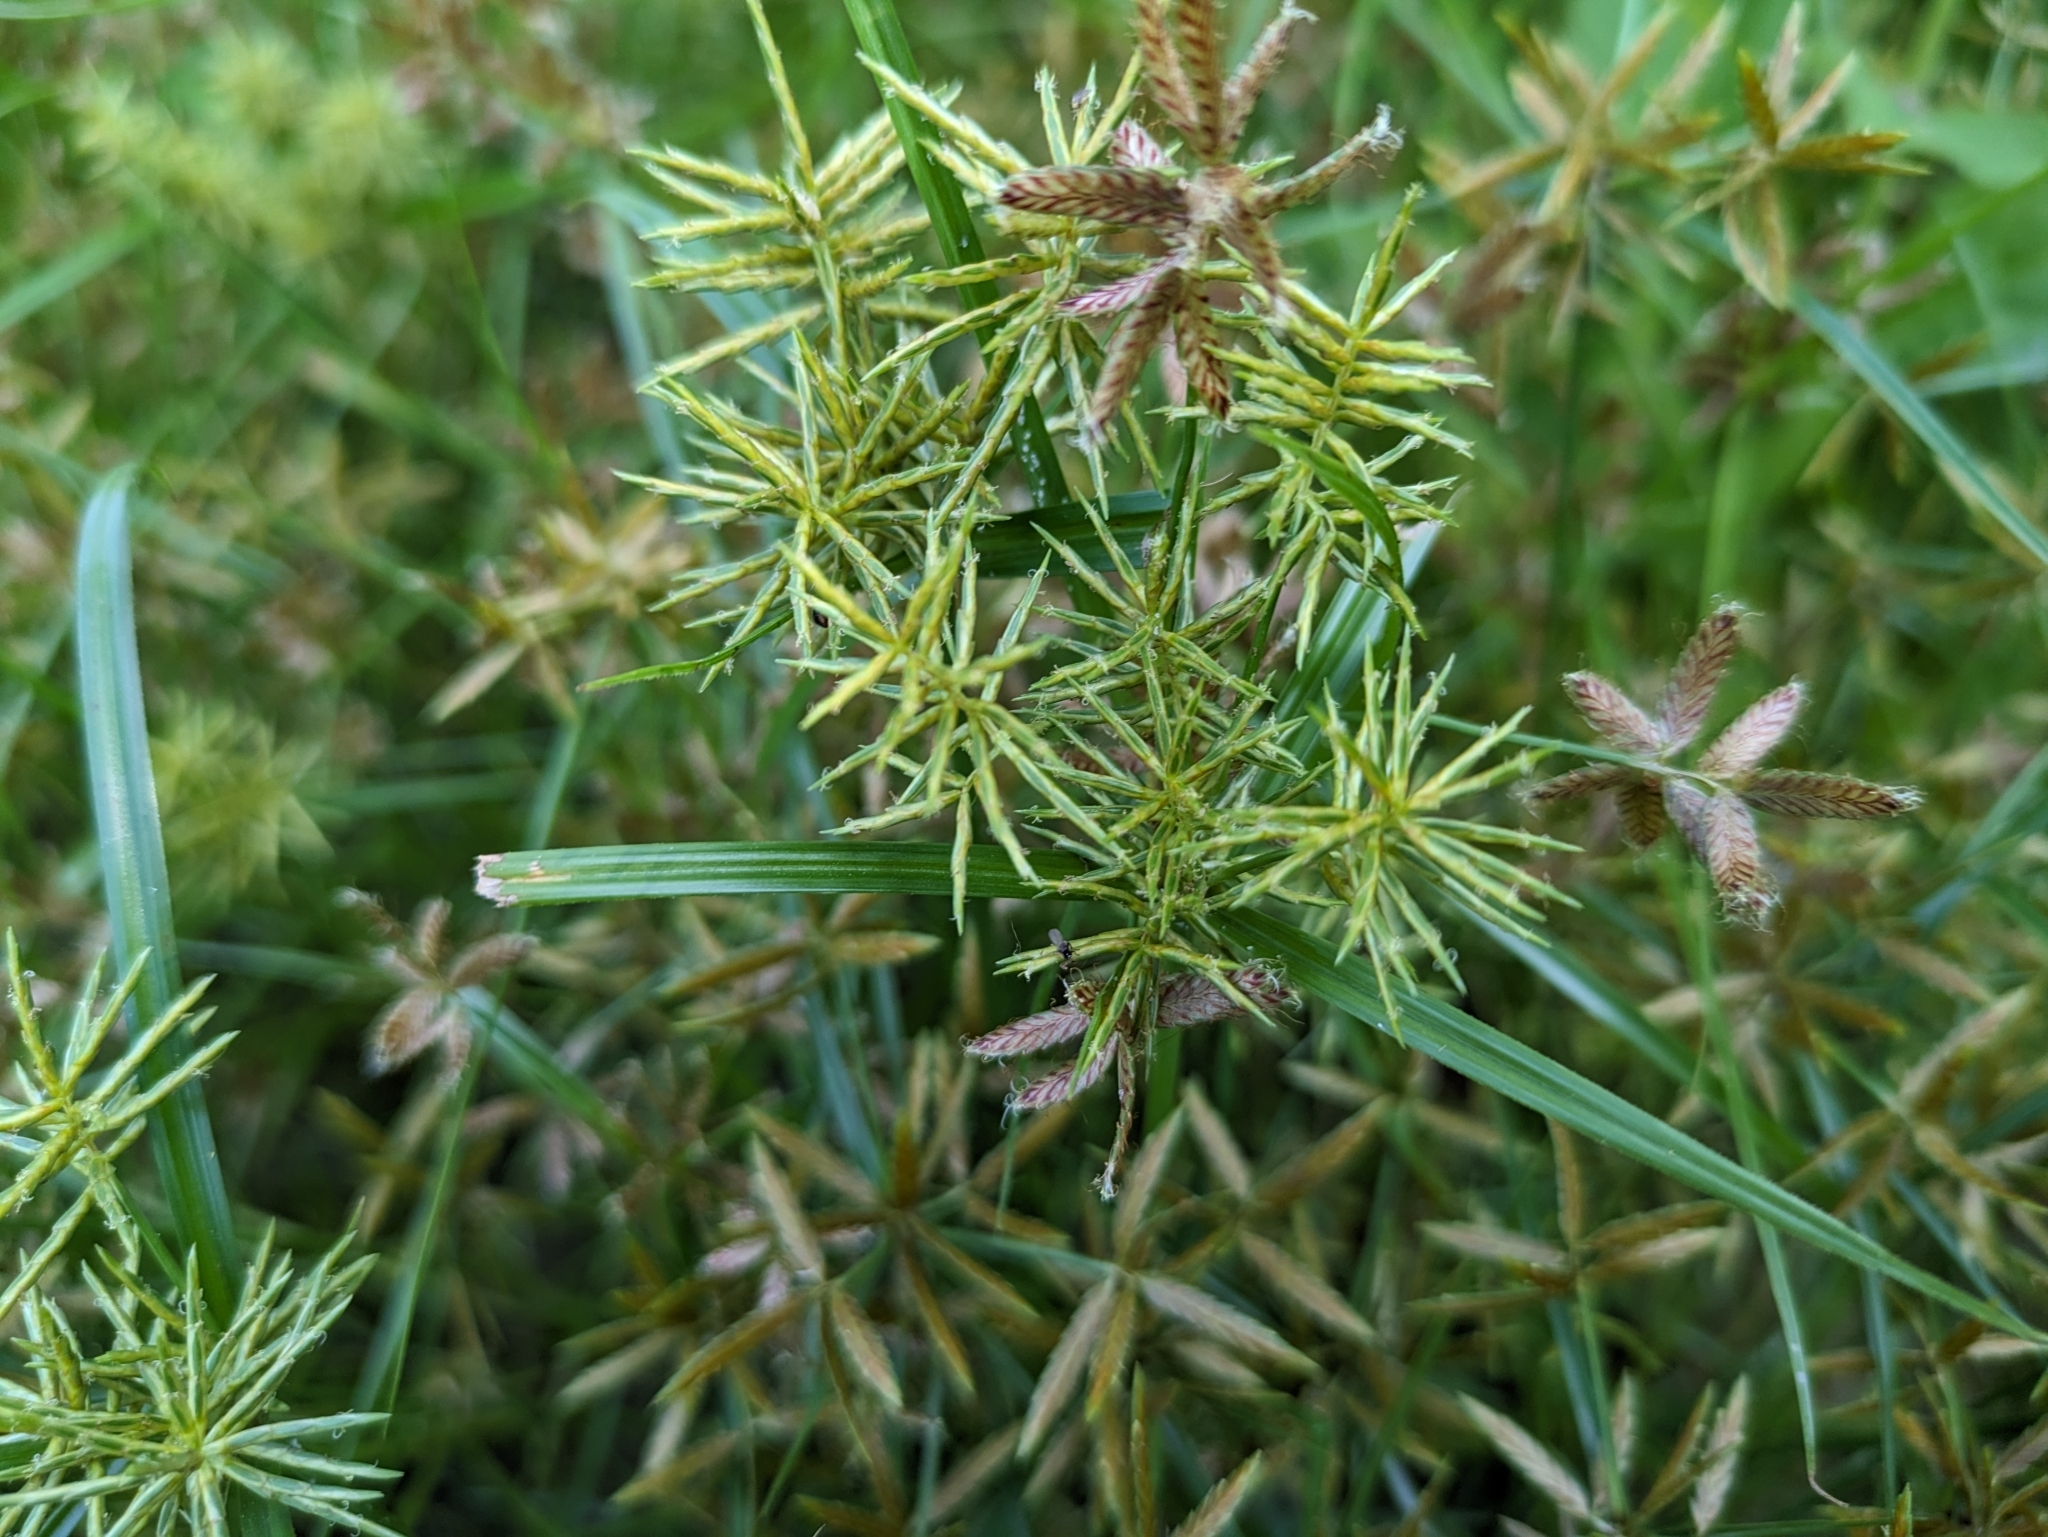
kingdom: Plantae
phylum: Tracheophyta
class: Liliopsida
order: Poales
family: Cyperaceae
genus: Cyperus
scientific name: Cyperus diandrus
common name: Low cyperus
